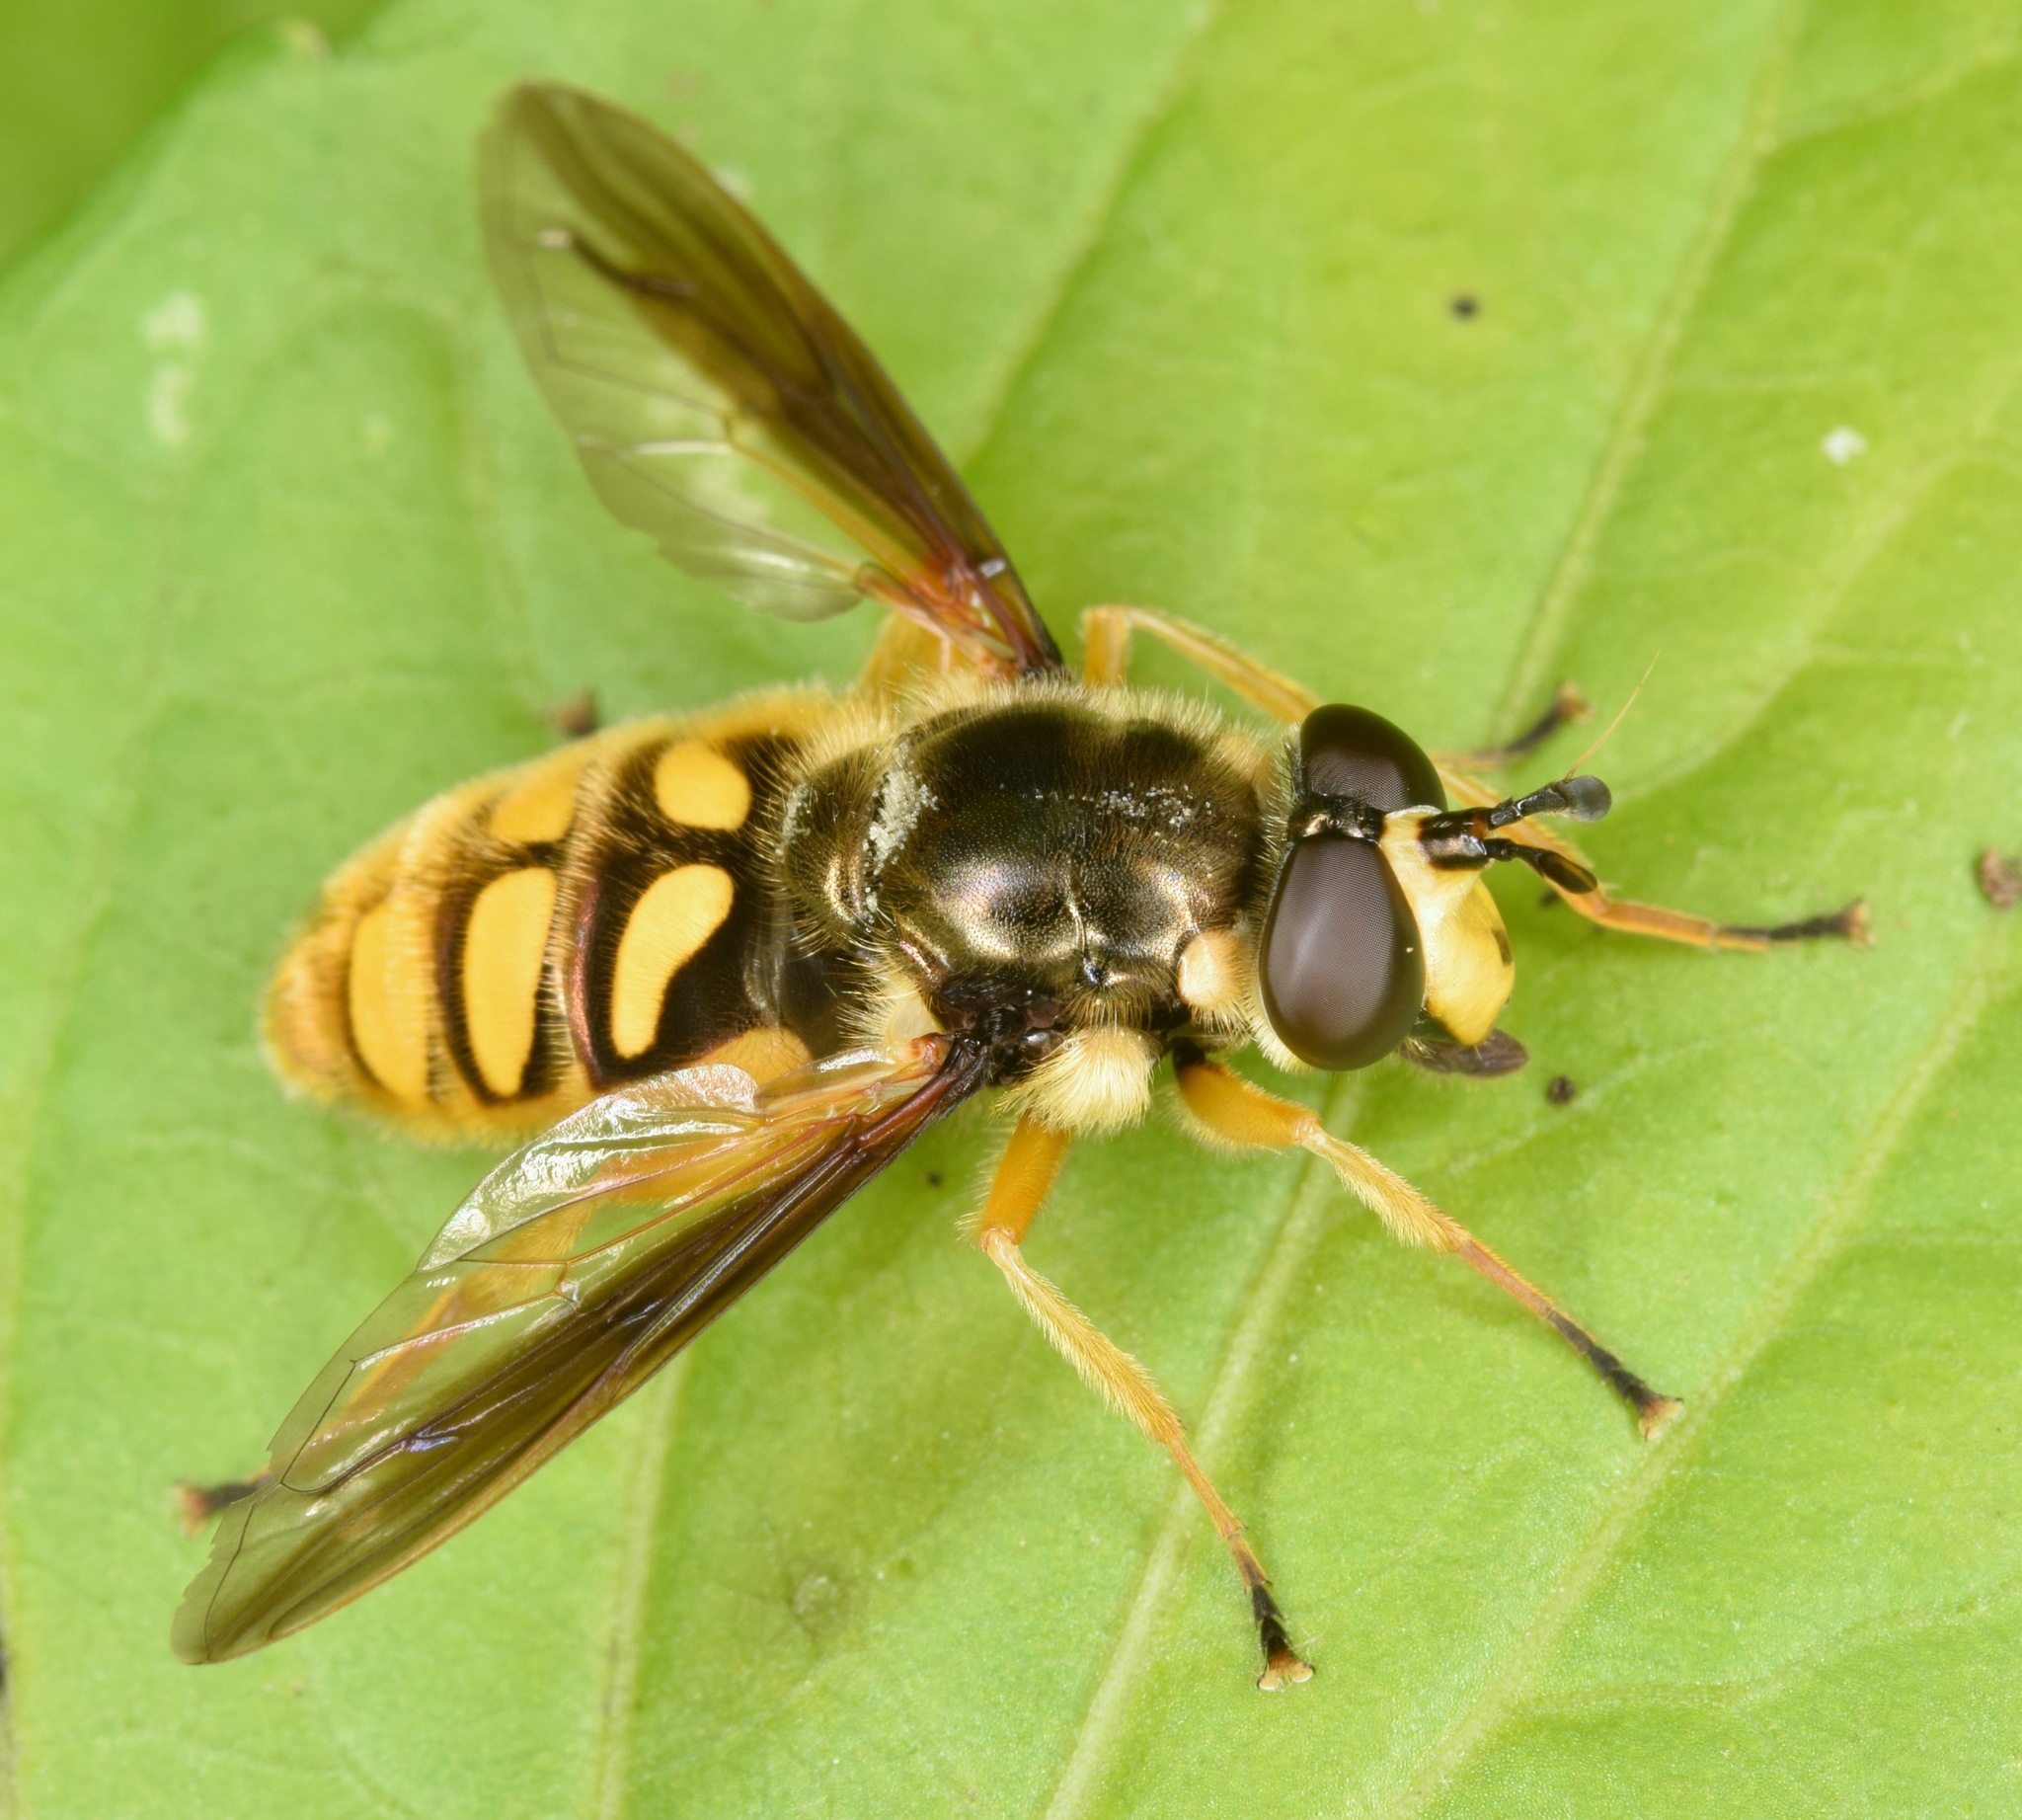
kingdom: Animalia
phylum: Arthropoda
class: Insecta
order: Diptera
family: Syrphidae
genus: Somula
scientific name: Somula decora
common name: Spotted wood fly
